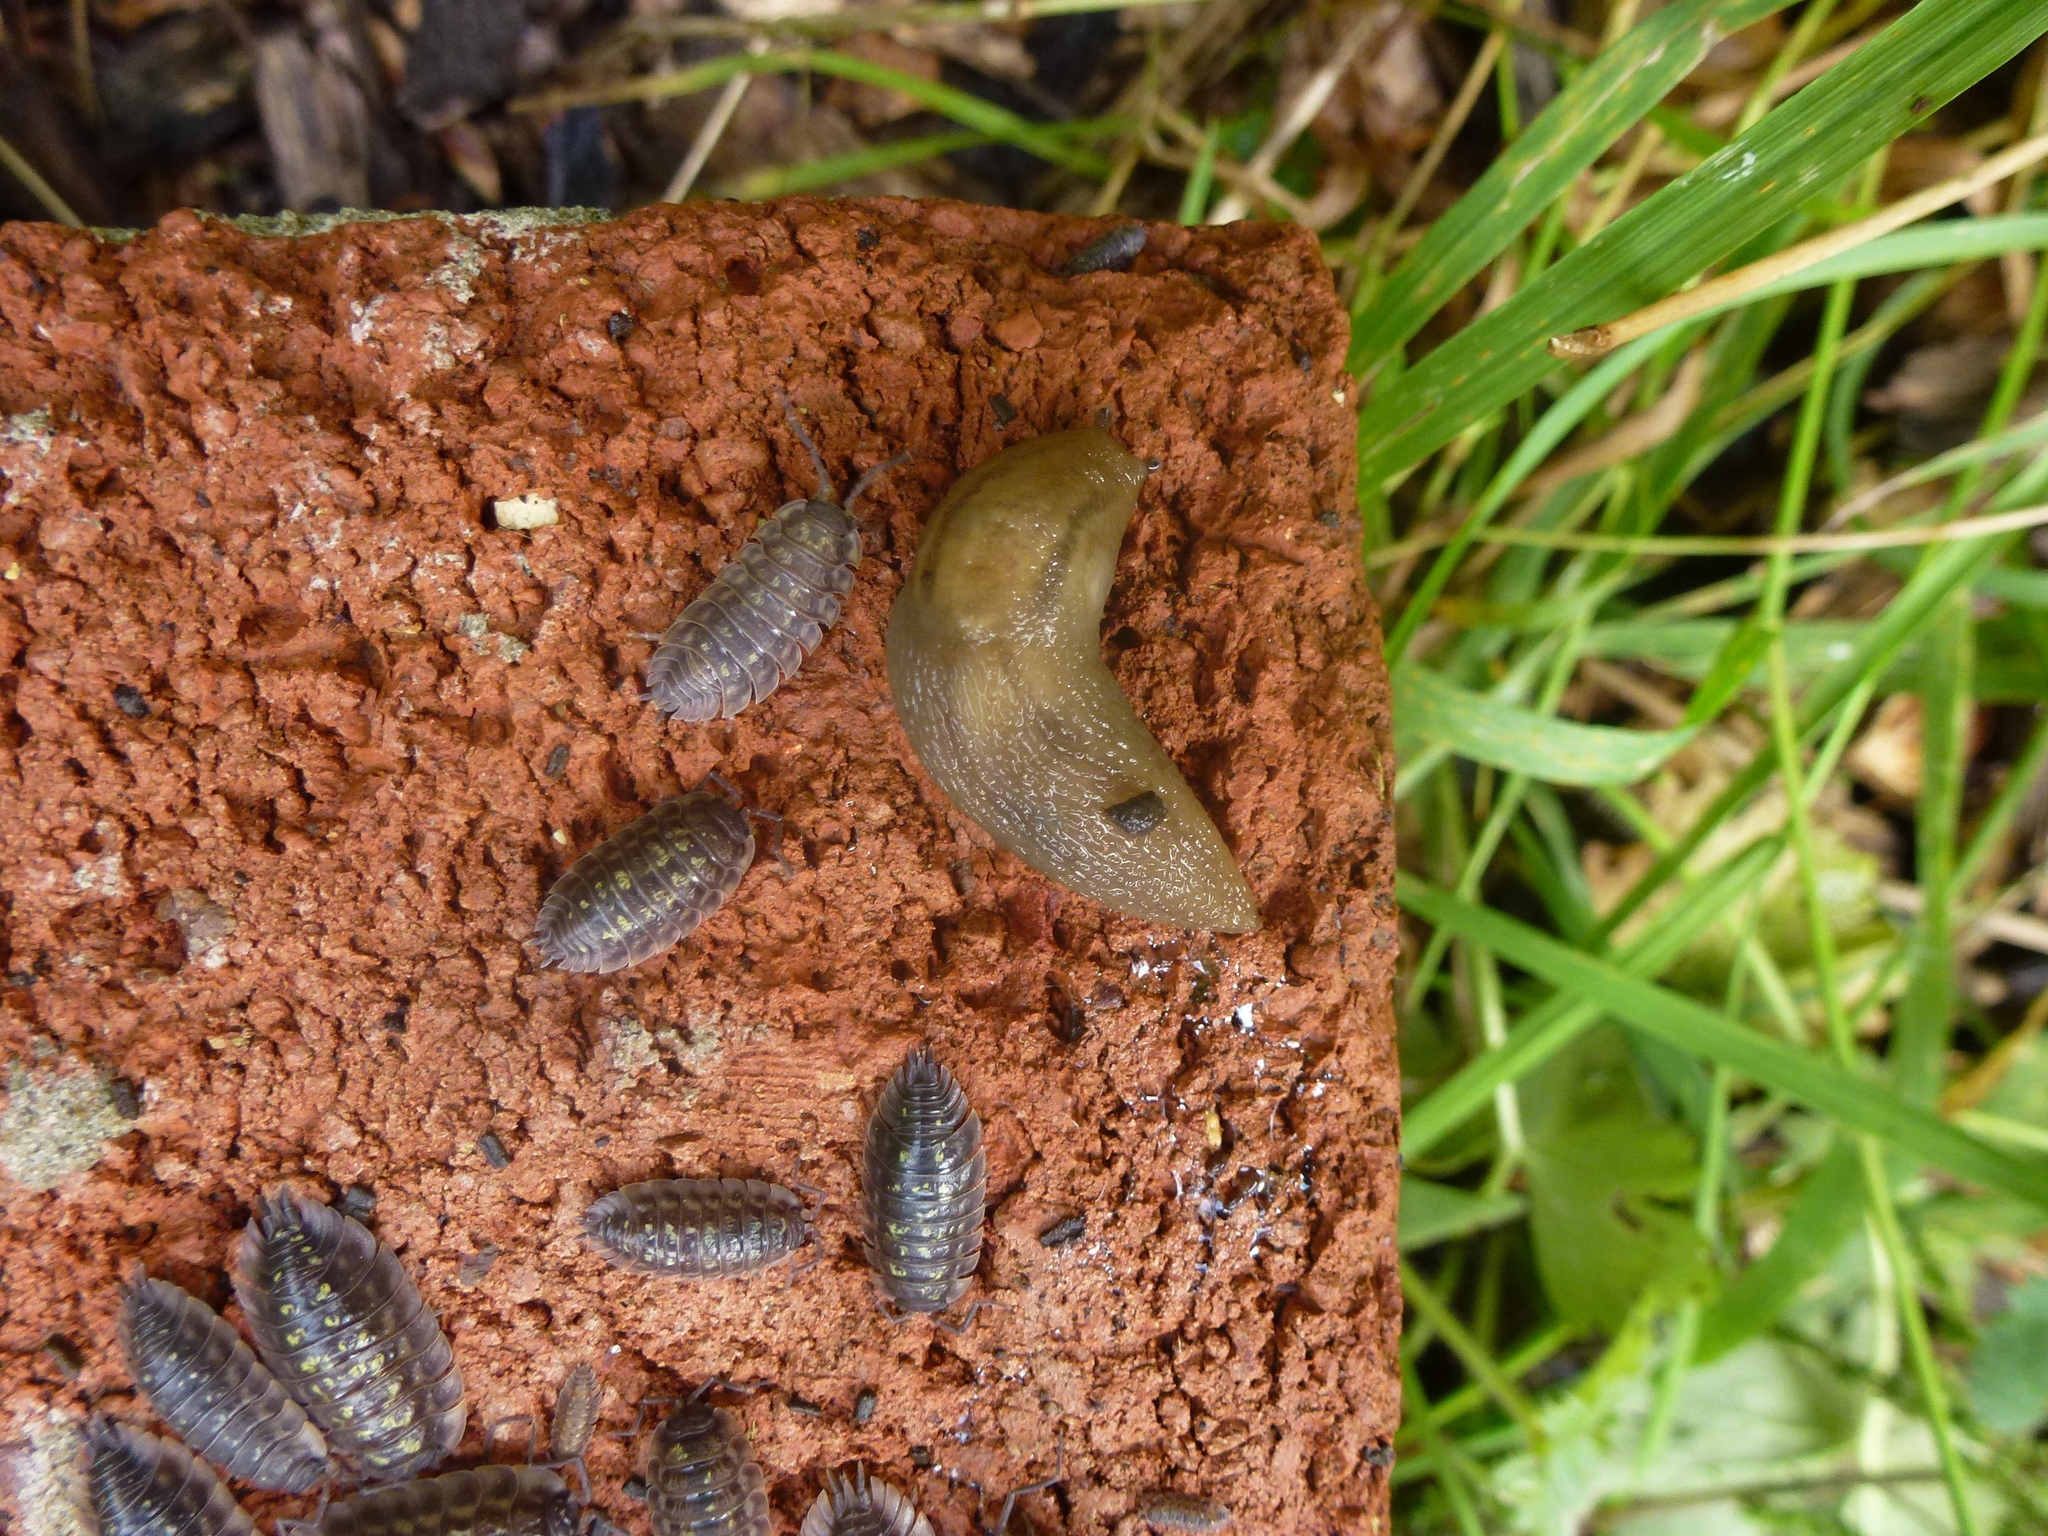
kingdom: Animalia
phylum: Mollusca
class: Gastropoda
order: Stylommatophora
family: Limacidae
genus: Ambigolimax
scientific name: Ambigolimax valentianus
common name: Greenhouse slug
